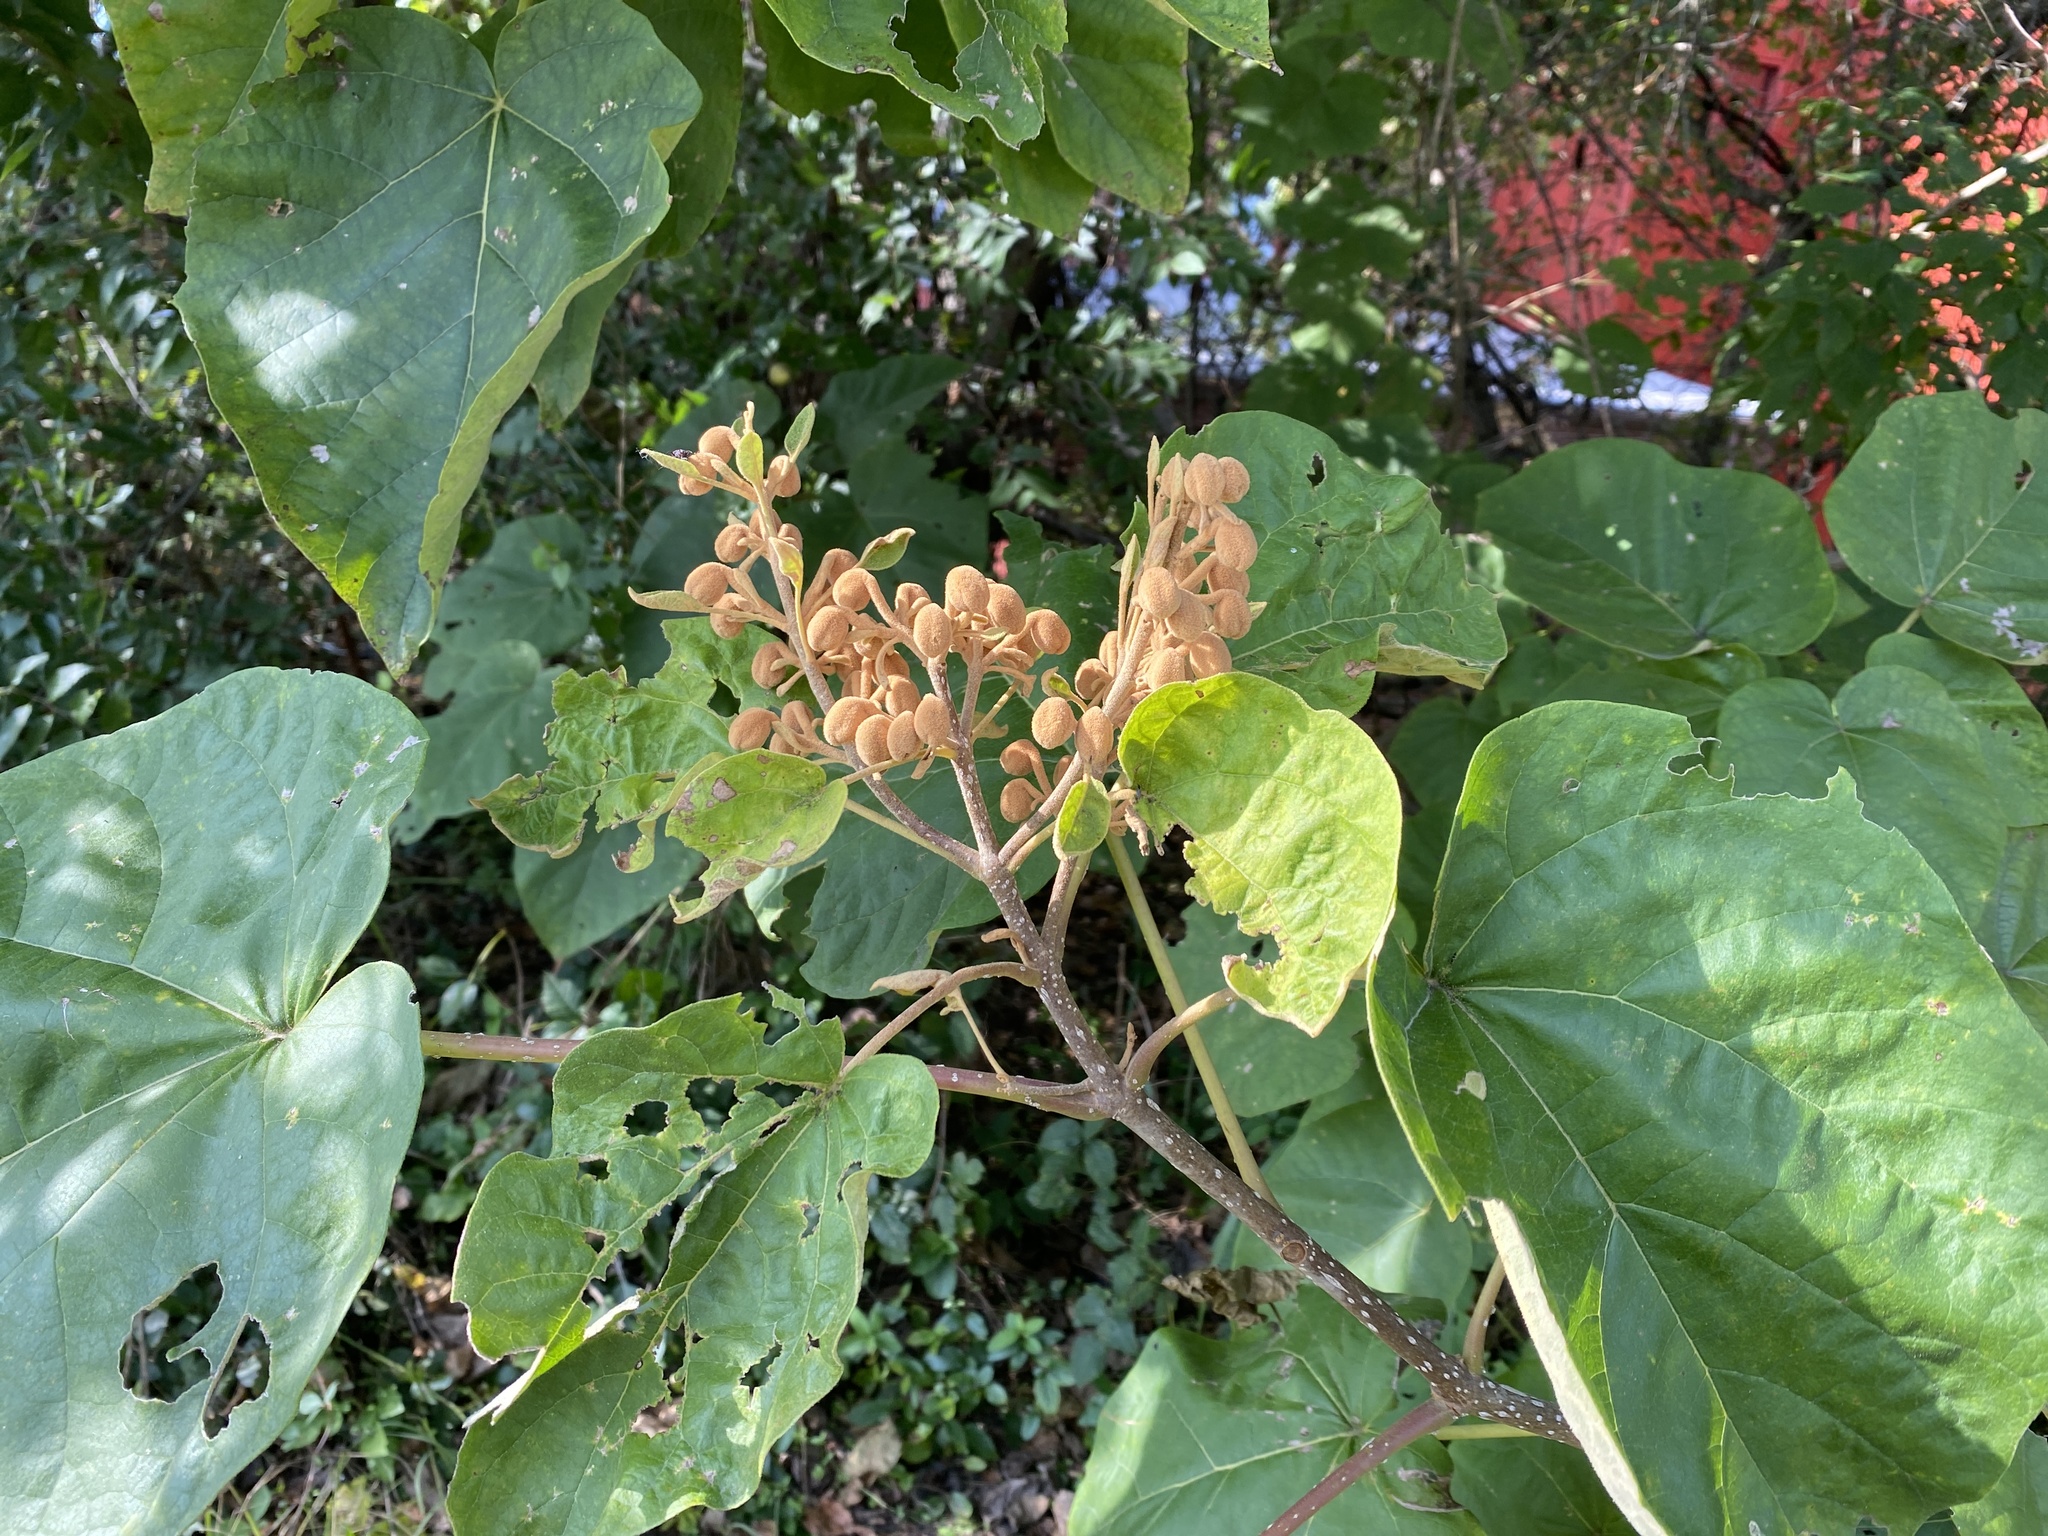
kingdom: Plantae
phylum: Tracheophyta
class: Magnoliopsida
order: Lamiales
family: Paulowniaceae
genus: Paulownia
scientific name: Paulownia tomentosa
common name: Foxglove-tree
